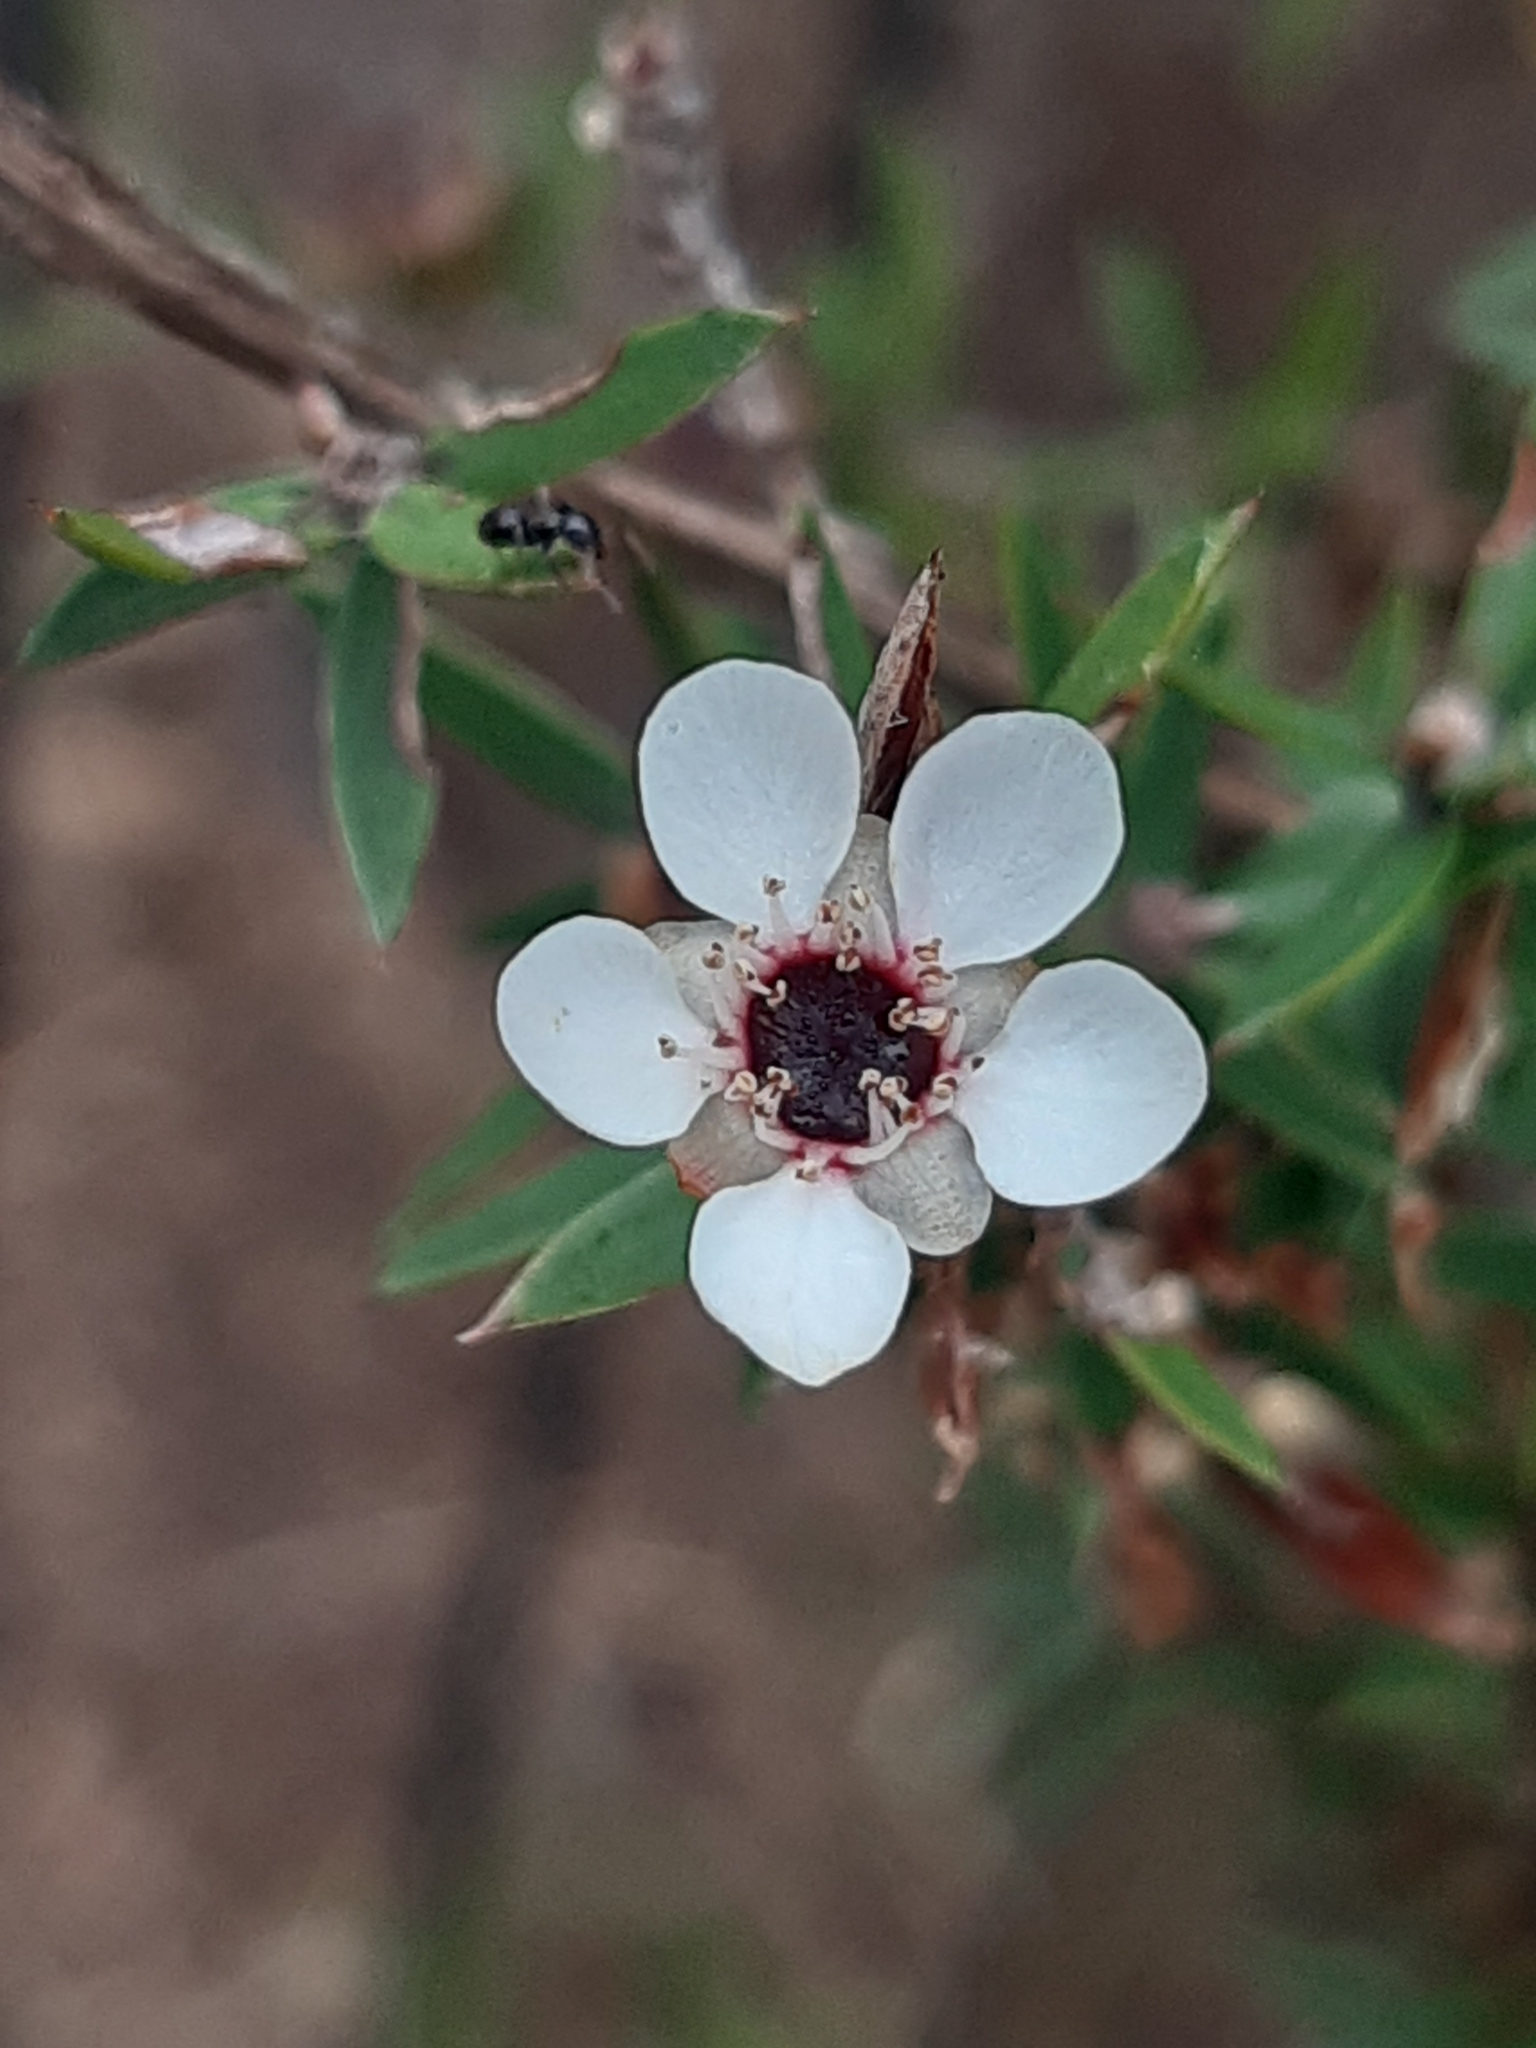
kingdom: Plantae
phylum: Tracheophyta
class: Magnoliopsida
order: Myrtales
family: Myrtaceae
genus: Leptospermum
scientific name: Leptospermum scoparium
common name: Broom tea-tree
